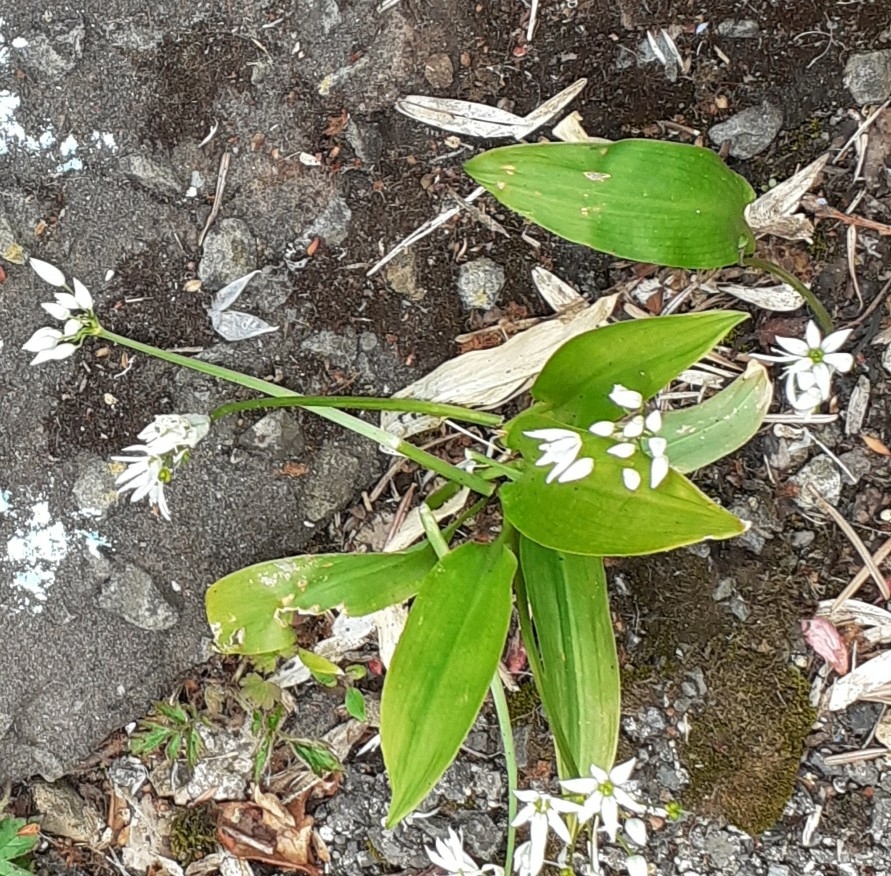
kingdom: Plantae
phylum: Tracheophyta
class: Liliopsida
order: Asparagales
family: Amaryllidaceae
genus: Allium
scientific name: Allium ursinum
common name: Ramsons
